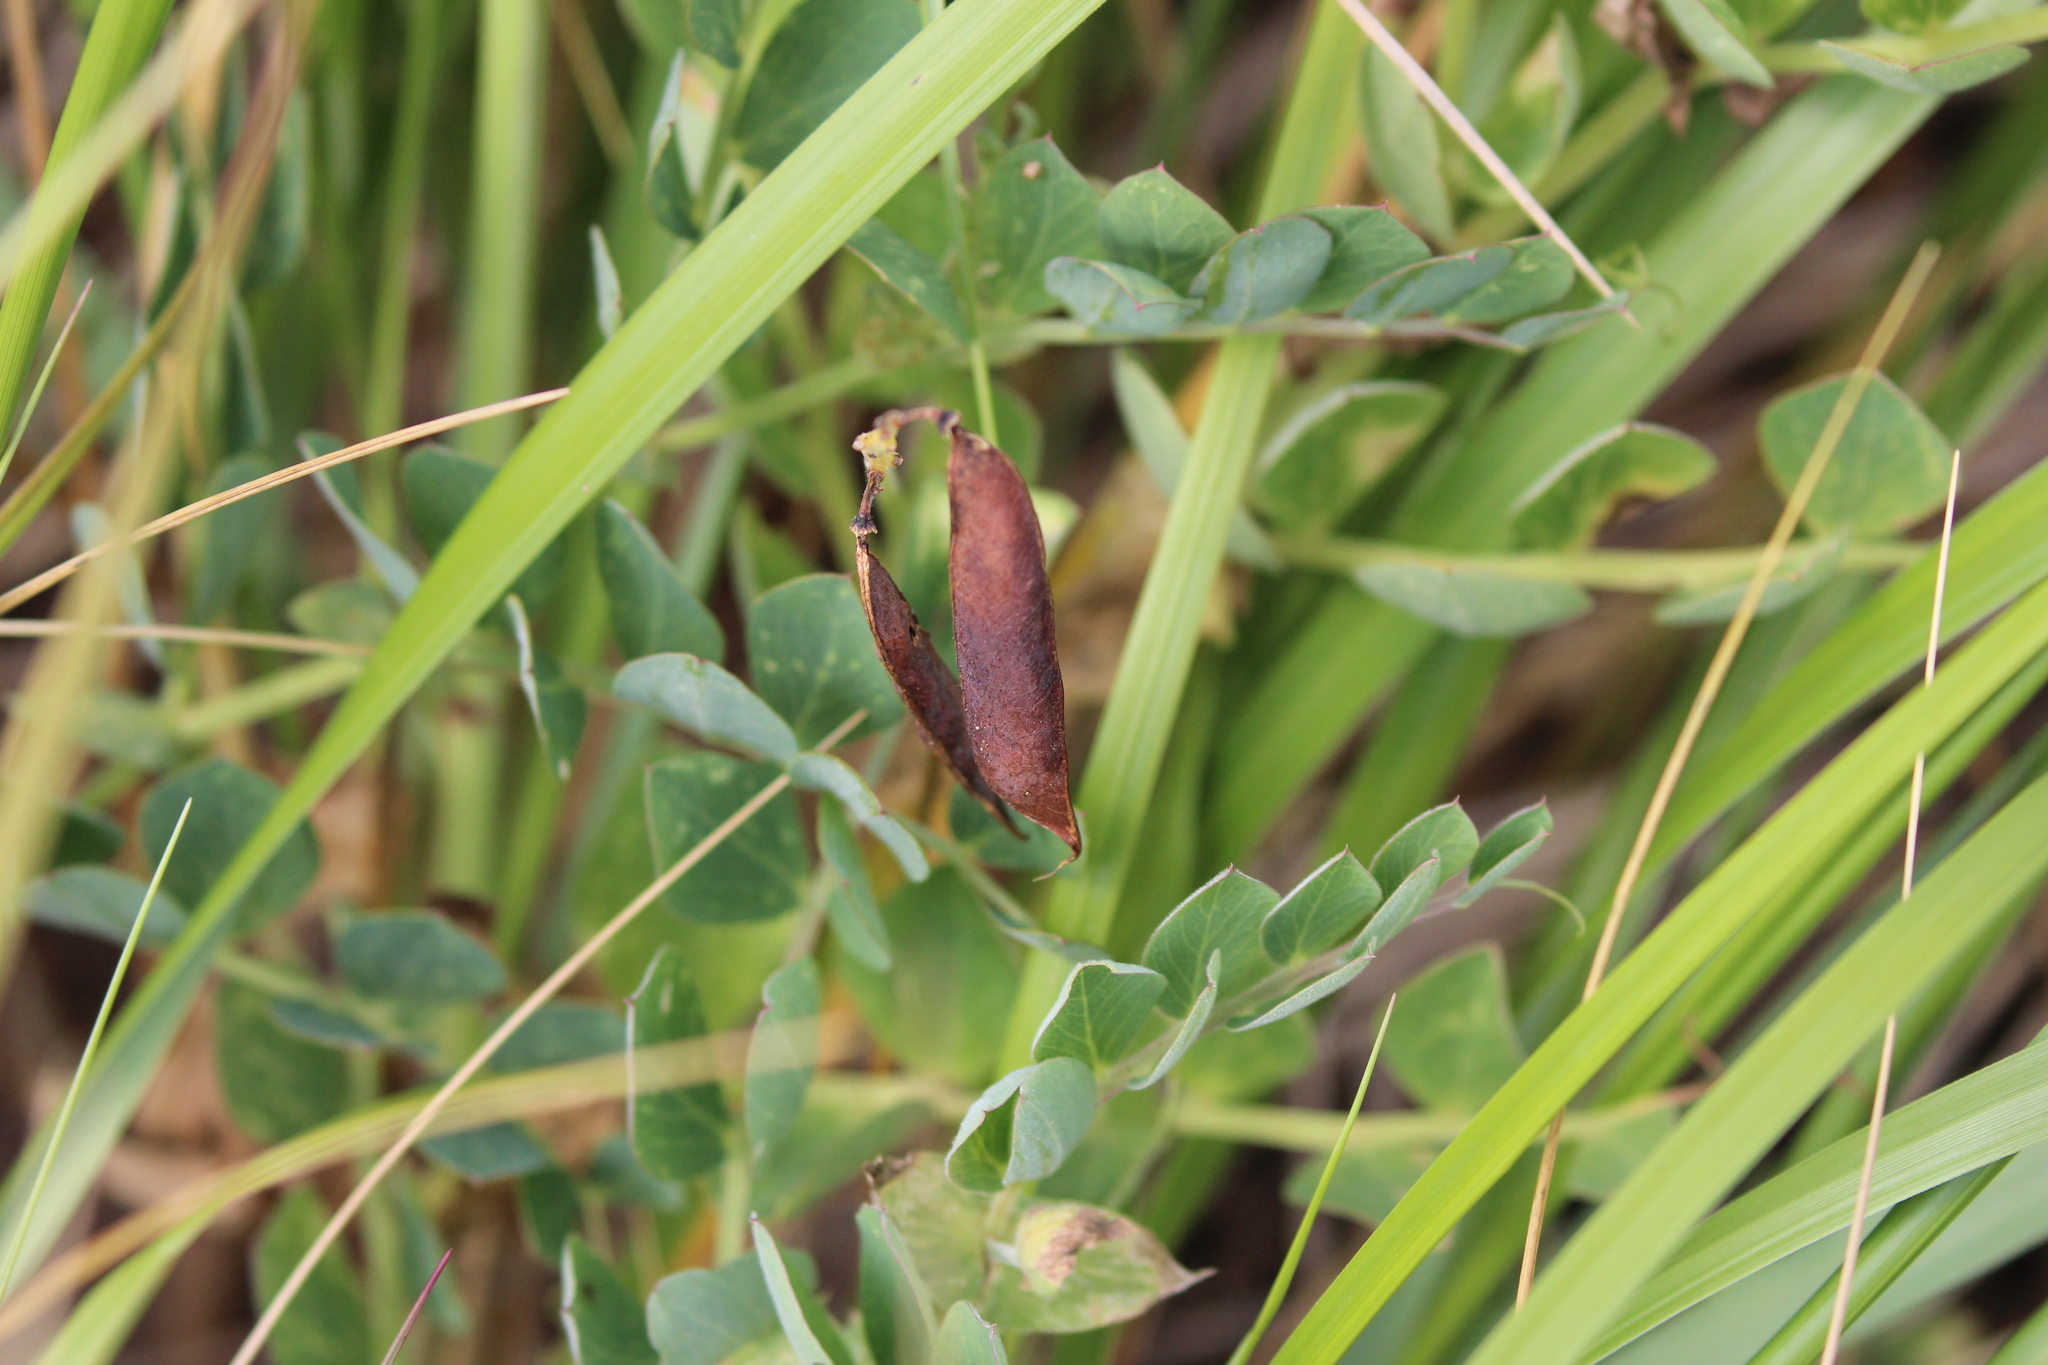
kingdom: Plantae
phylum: Tracheophyta
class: Magnoliopsida
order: Fabales
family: Fabaceae
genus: Lathyrus
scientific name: Lathyrus japonicus
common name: Sea pea
